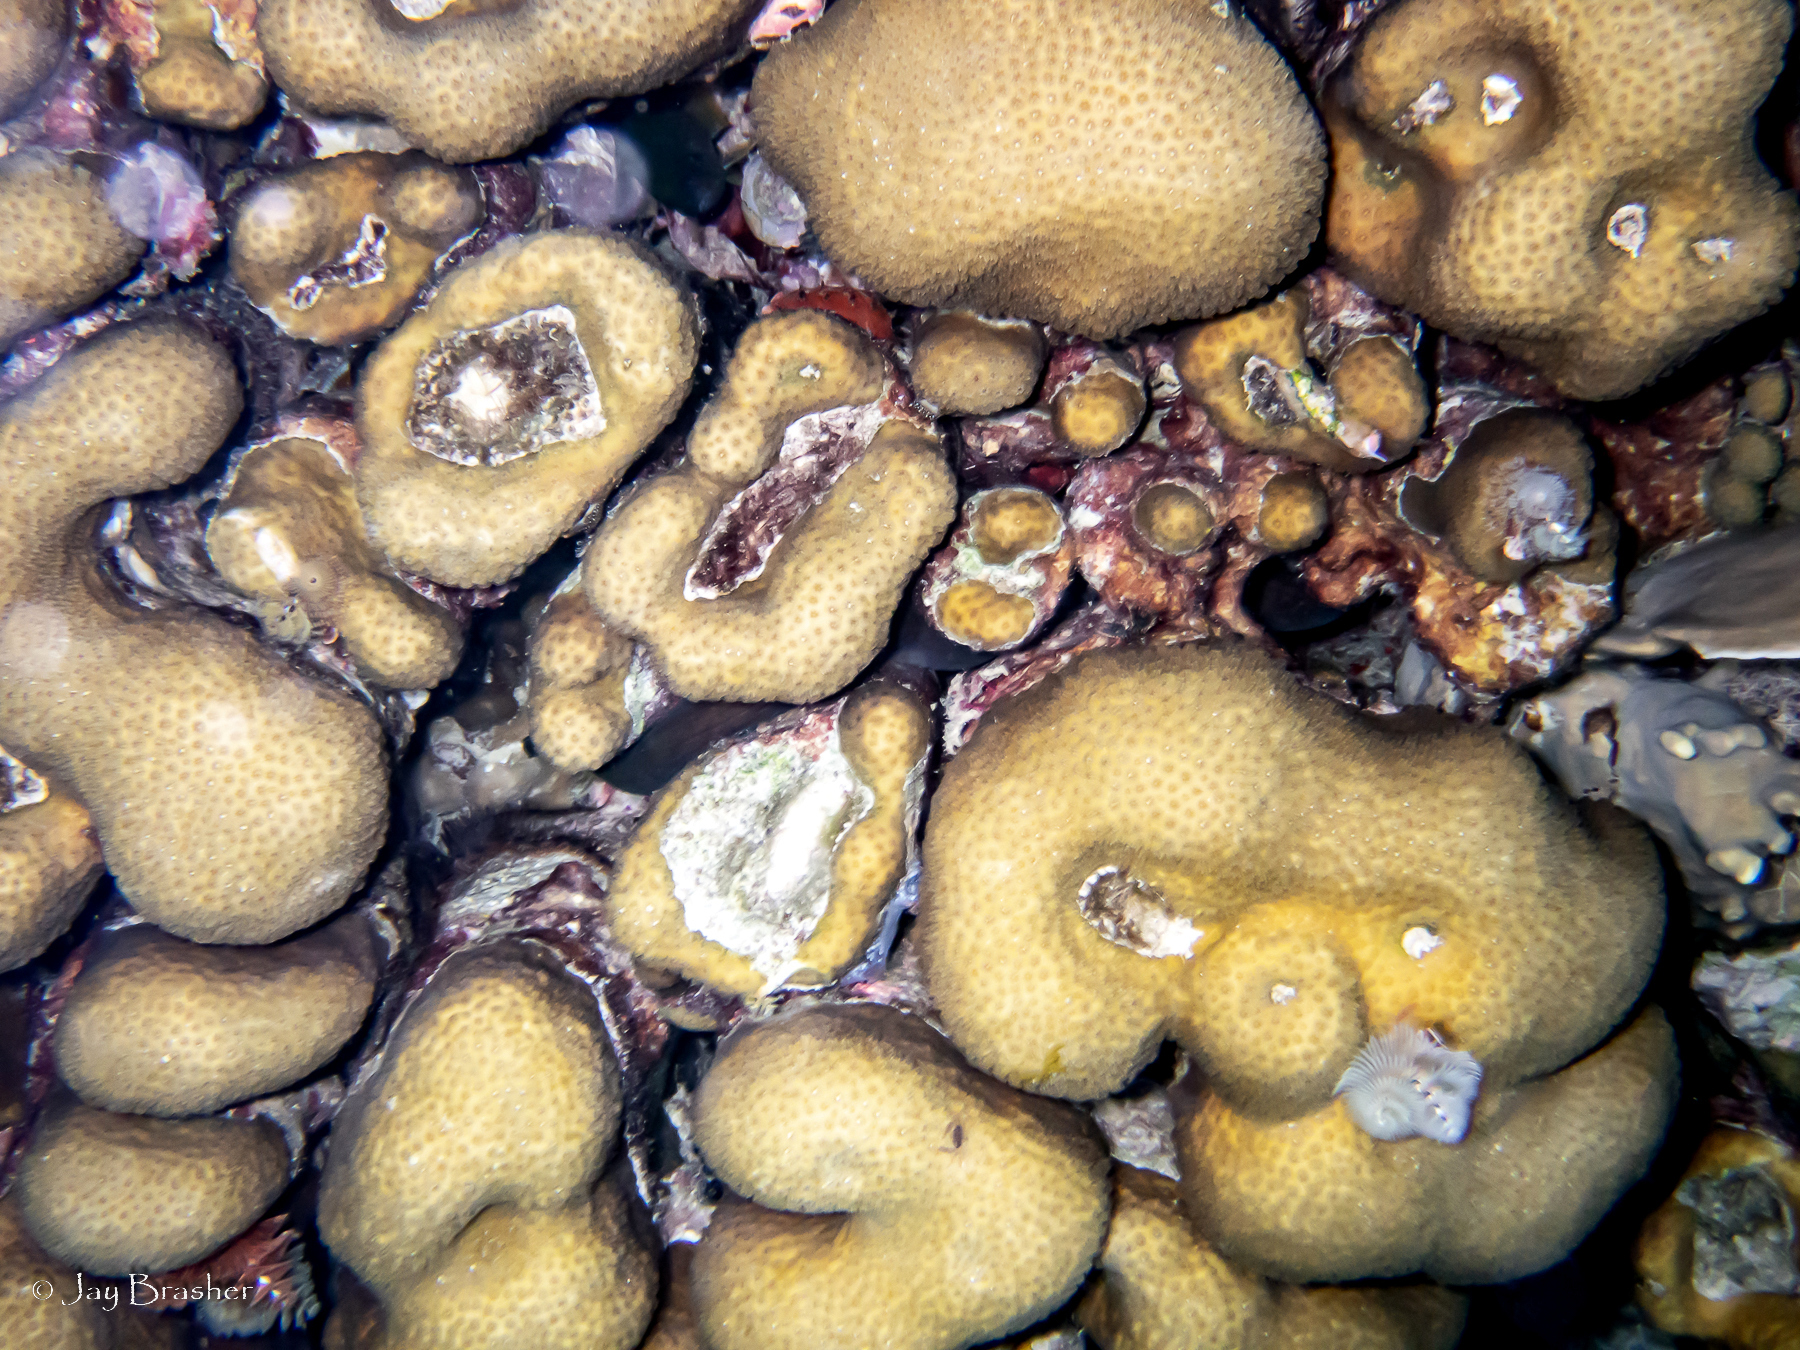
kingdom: Animalia
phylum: Cnidaria
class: Anthozoa
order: Scleractinia
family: Merulinidae
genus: Orbicella
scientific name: Orbicella annularis
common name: Boulder star coral
